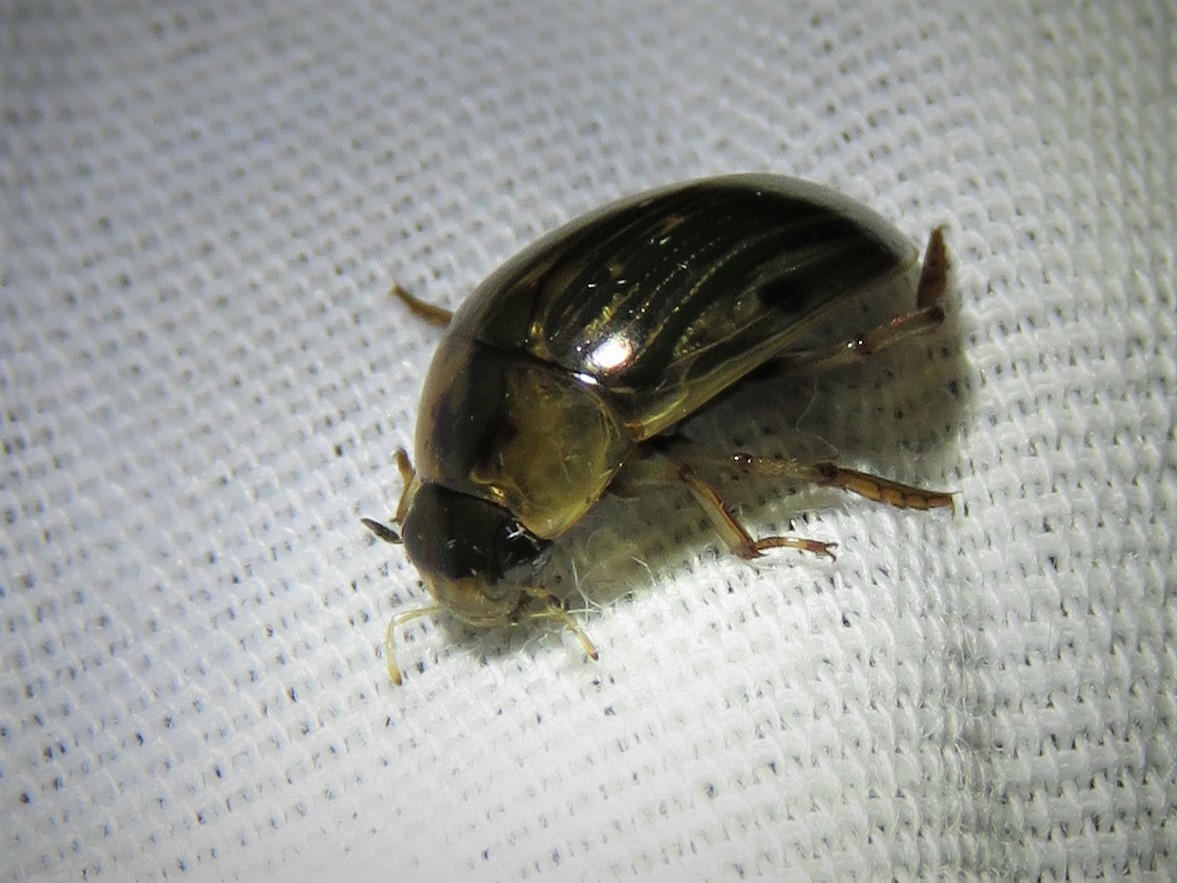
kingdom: Animalia
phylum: Arthropoda
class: Insecta
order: Coleoptera
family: Hydrophilidae
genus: Tropisternus
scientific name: Tropisternus collaris
